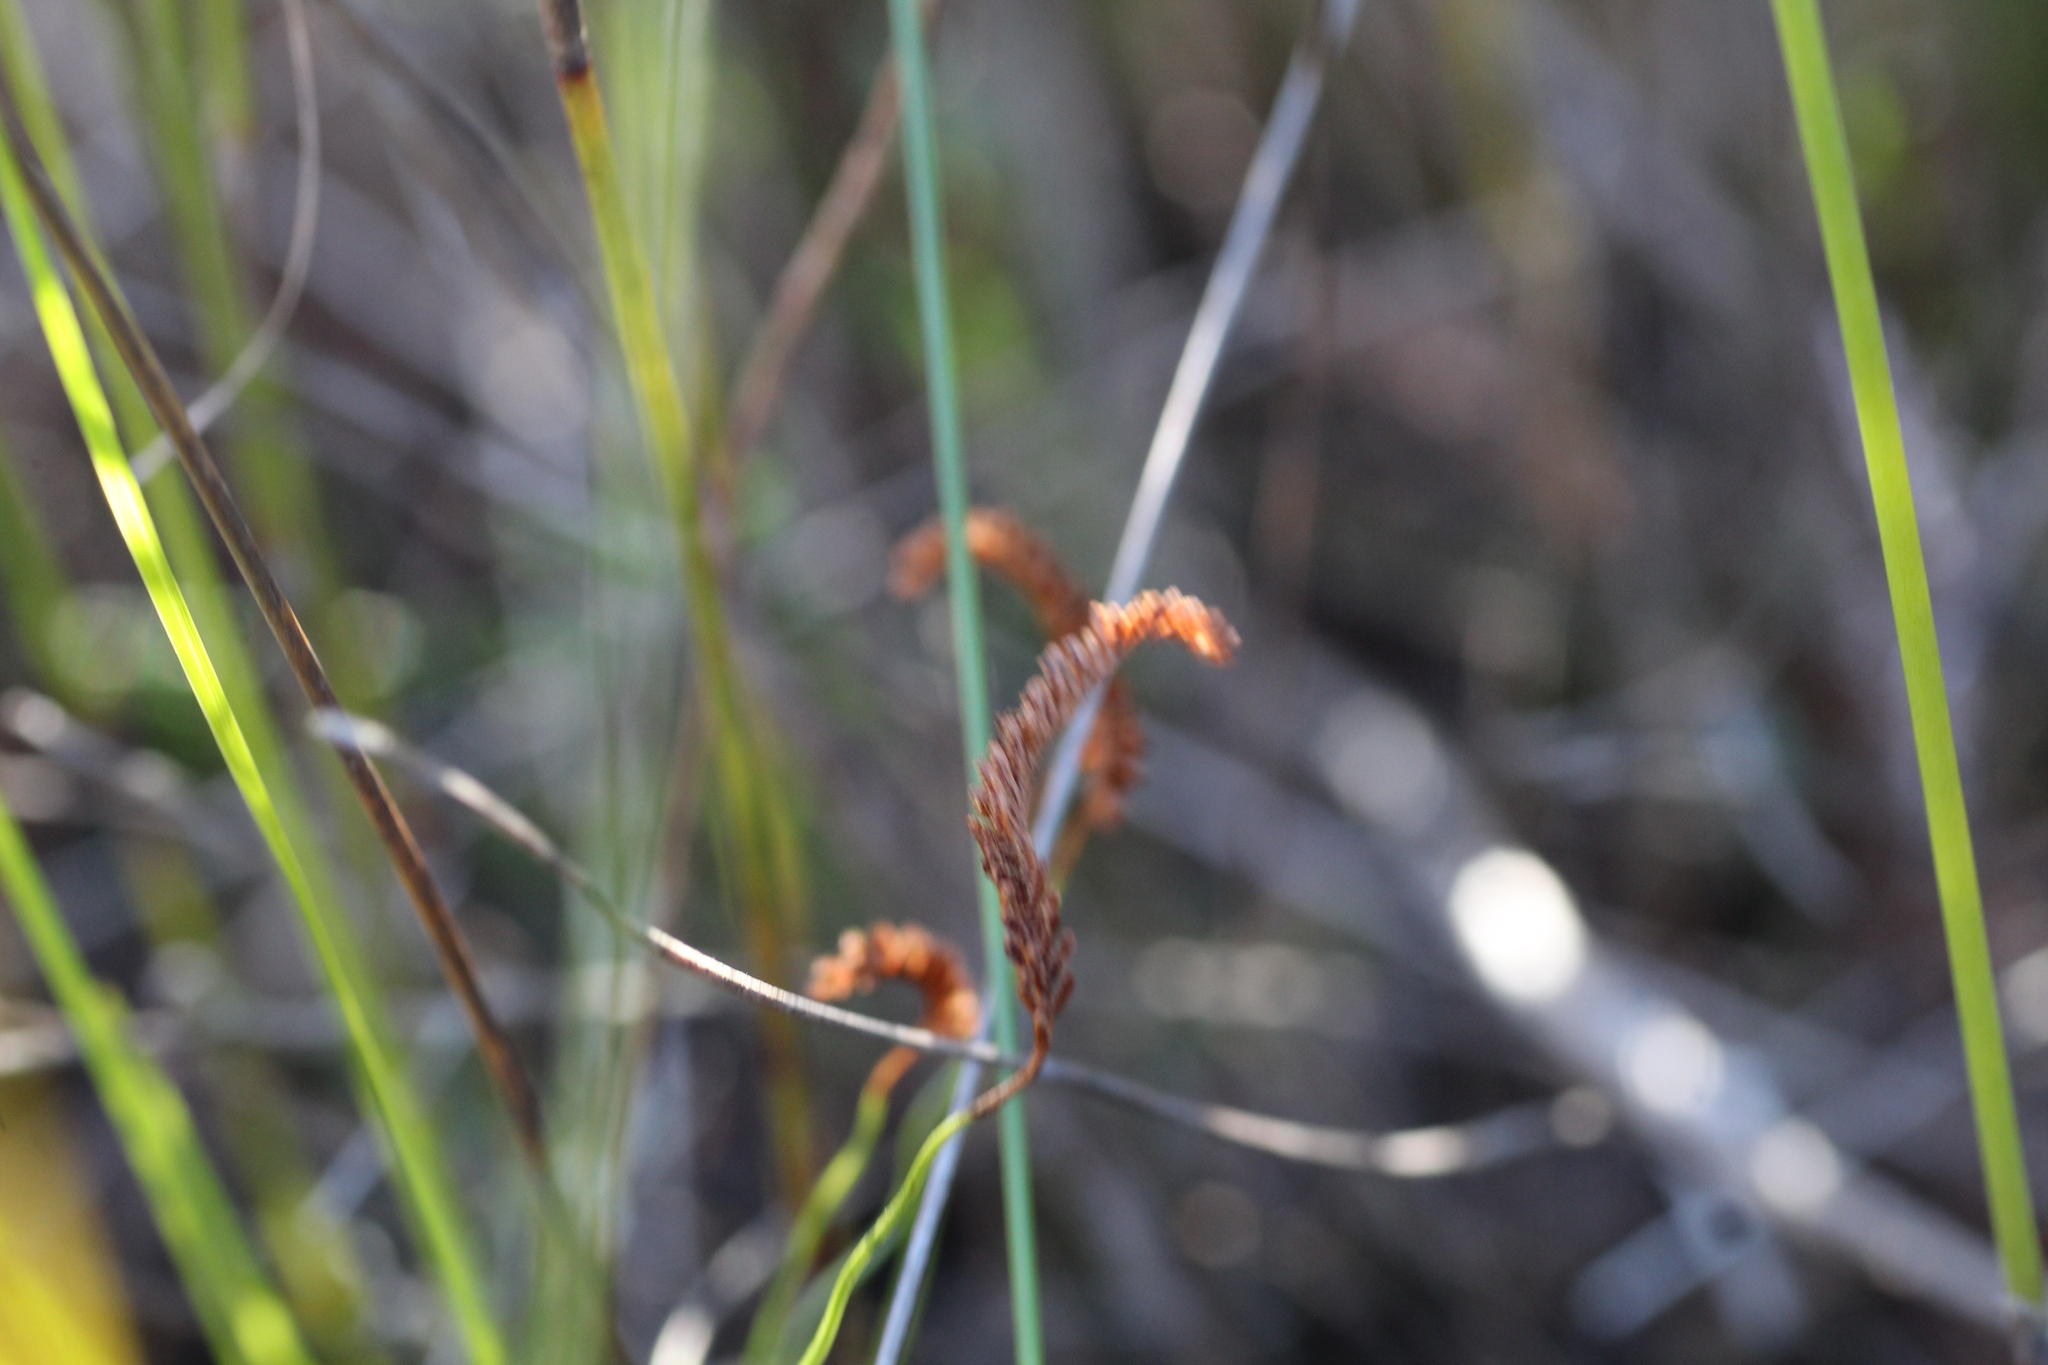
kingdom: Plantae
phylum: Tracheophyta
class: Polypodiopsida
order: Schizaeales
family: Schizaeaceae
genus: Microschizaea
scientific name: Microschizaea fistulosa
